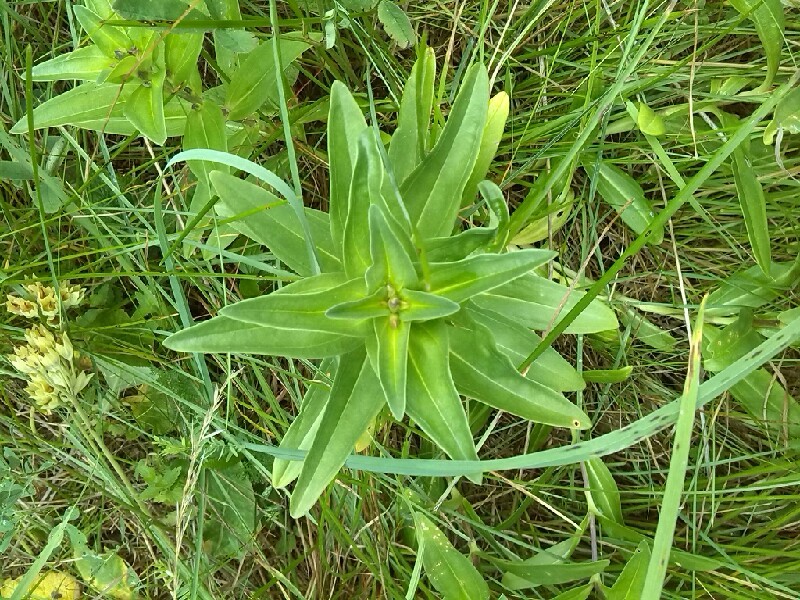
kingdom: Plantae
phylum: Tracheophyta
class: Magnoliopsida
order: Gentianales
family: Gentianaceae
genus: Gentiana
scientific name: Gentiana cruciata
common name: Cross gentian
